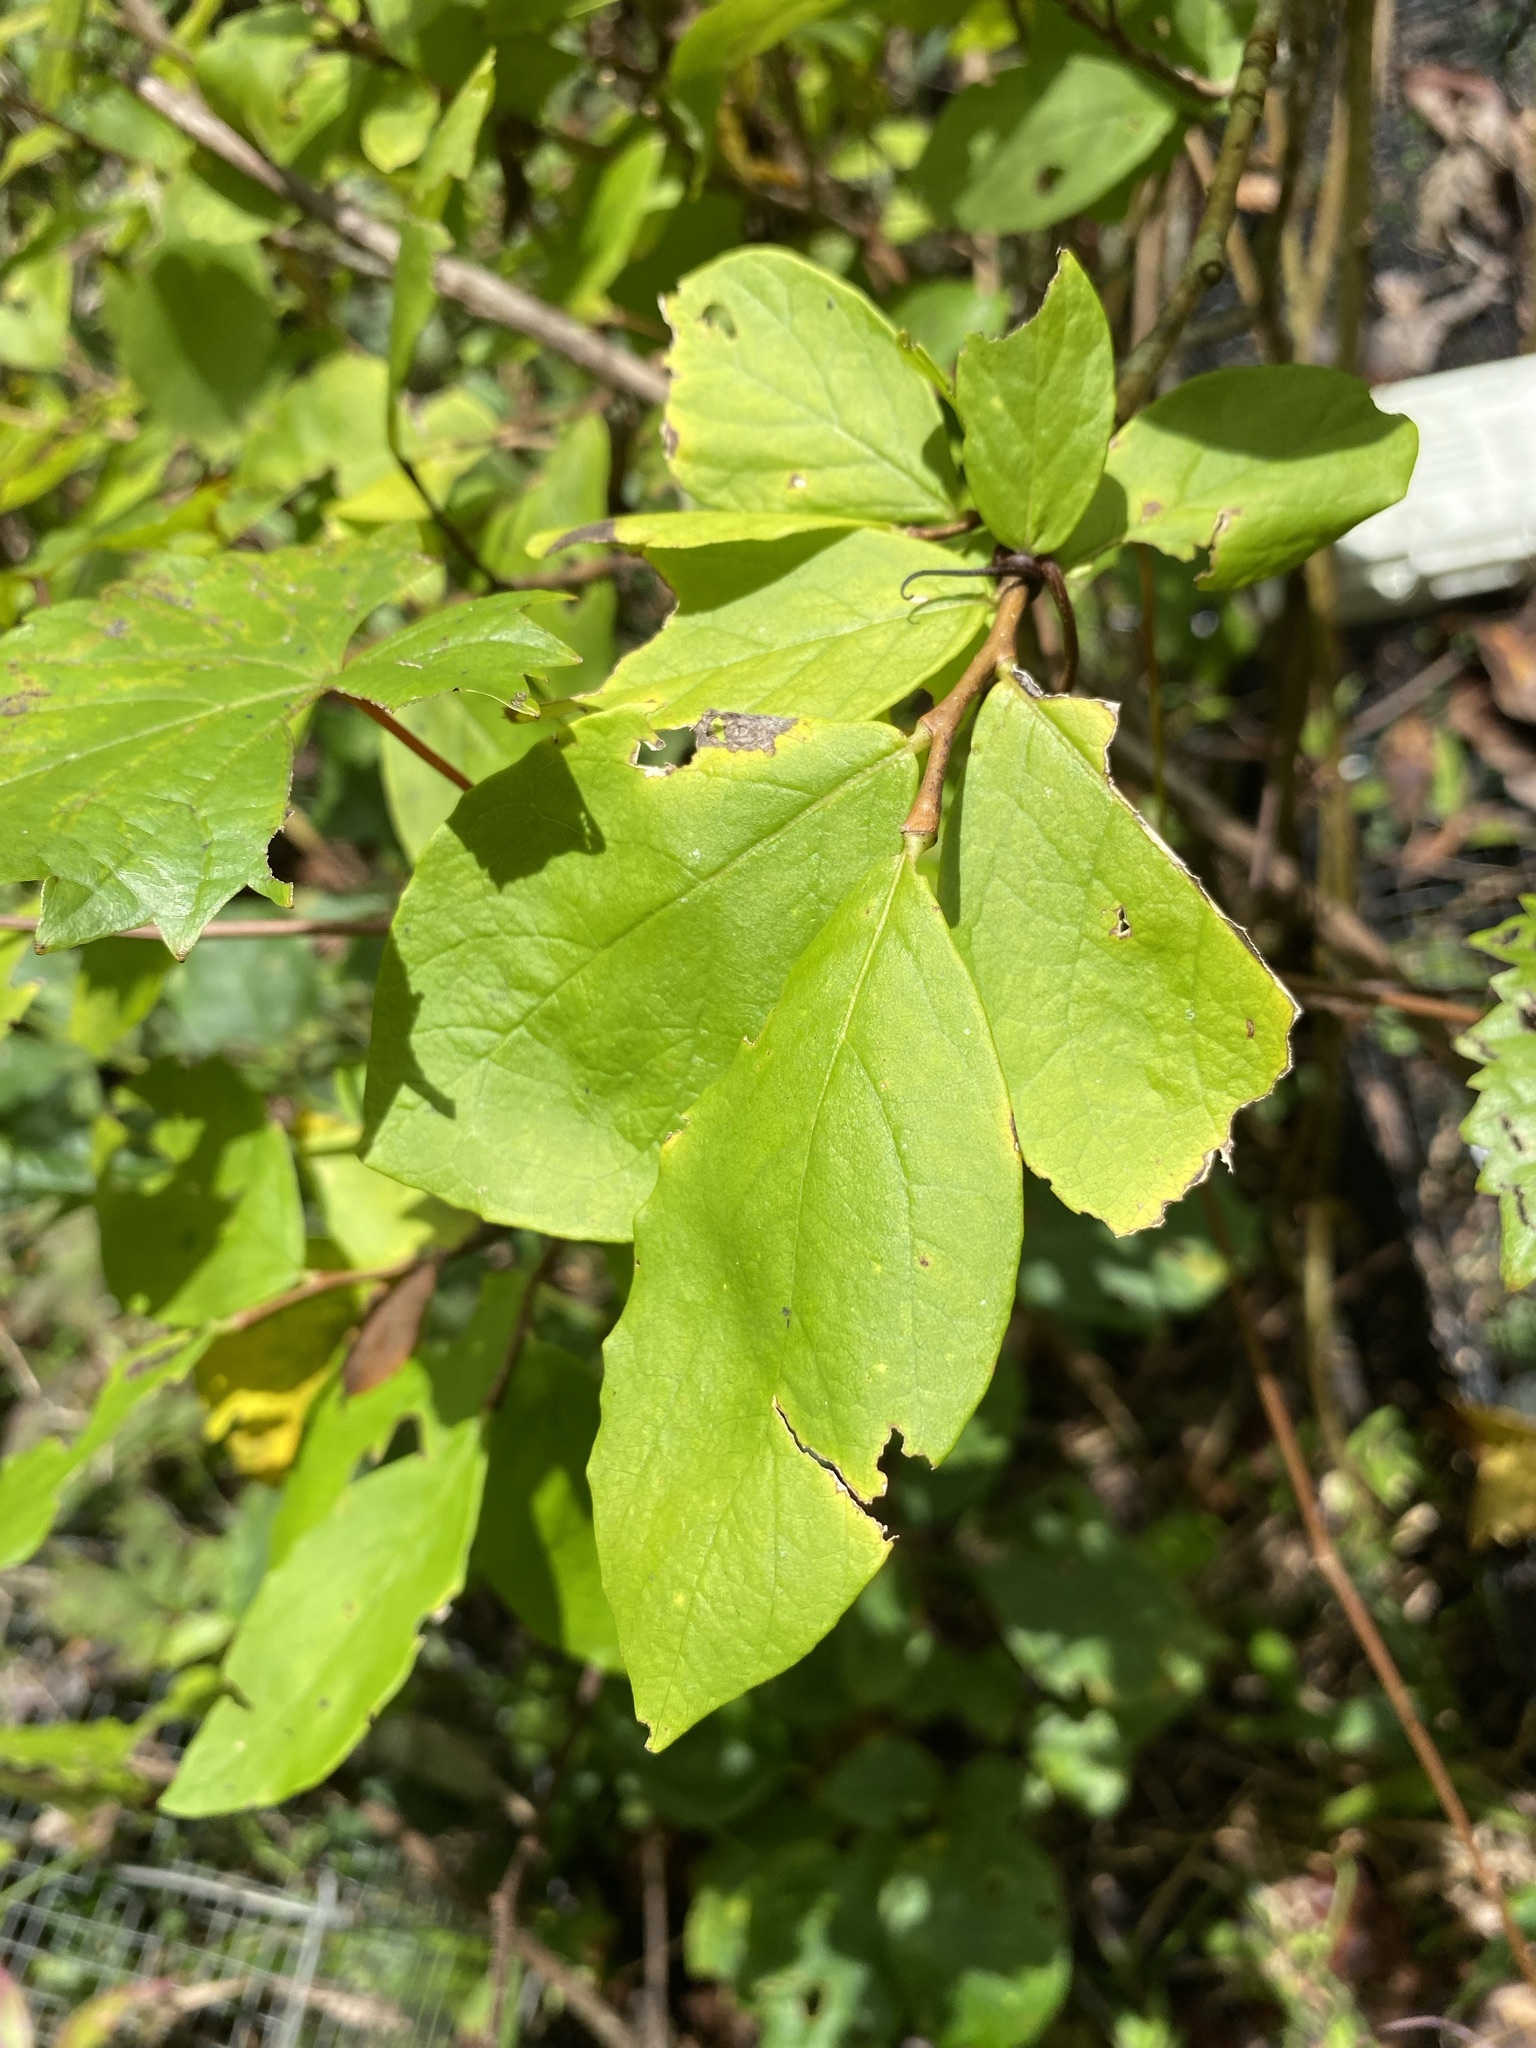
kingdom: Plantae
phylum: Tracheophyta
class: Magnoliopsida
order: Malvales
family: Thymelaeaceae
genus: Dirca
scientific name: Dirca palustris
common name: Leatherwood
